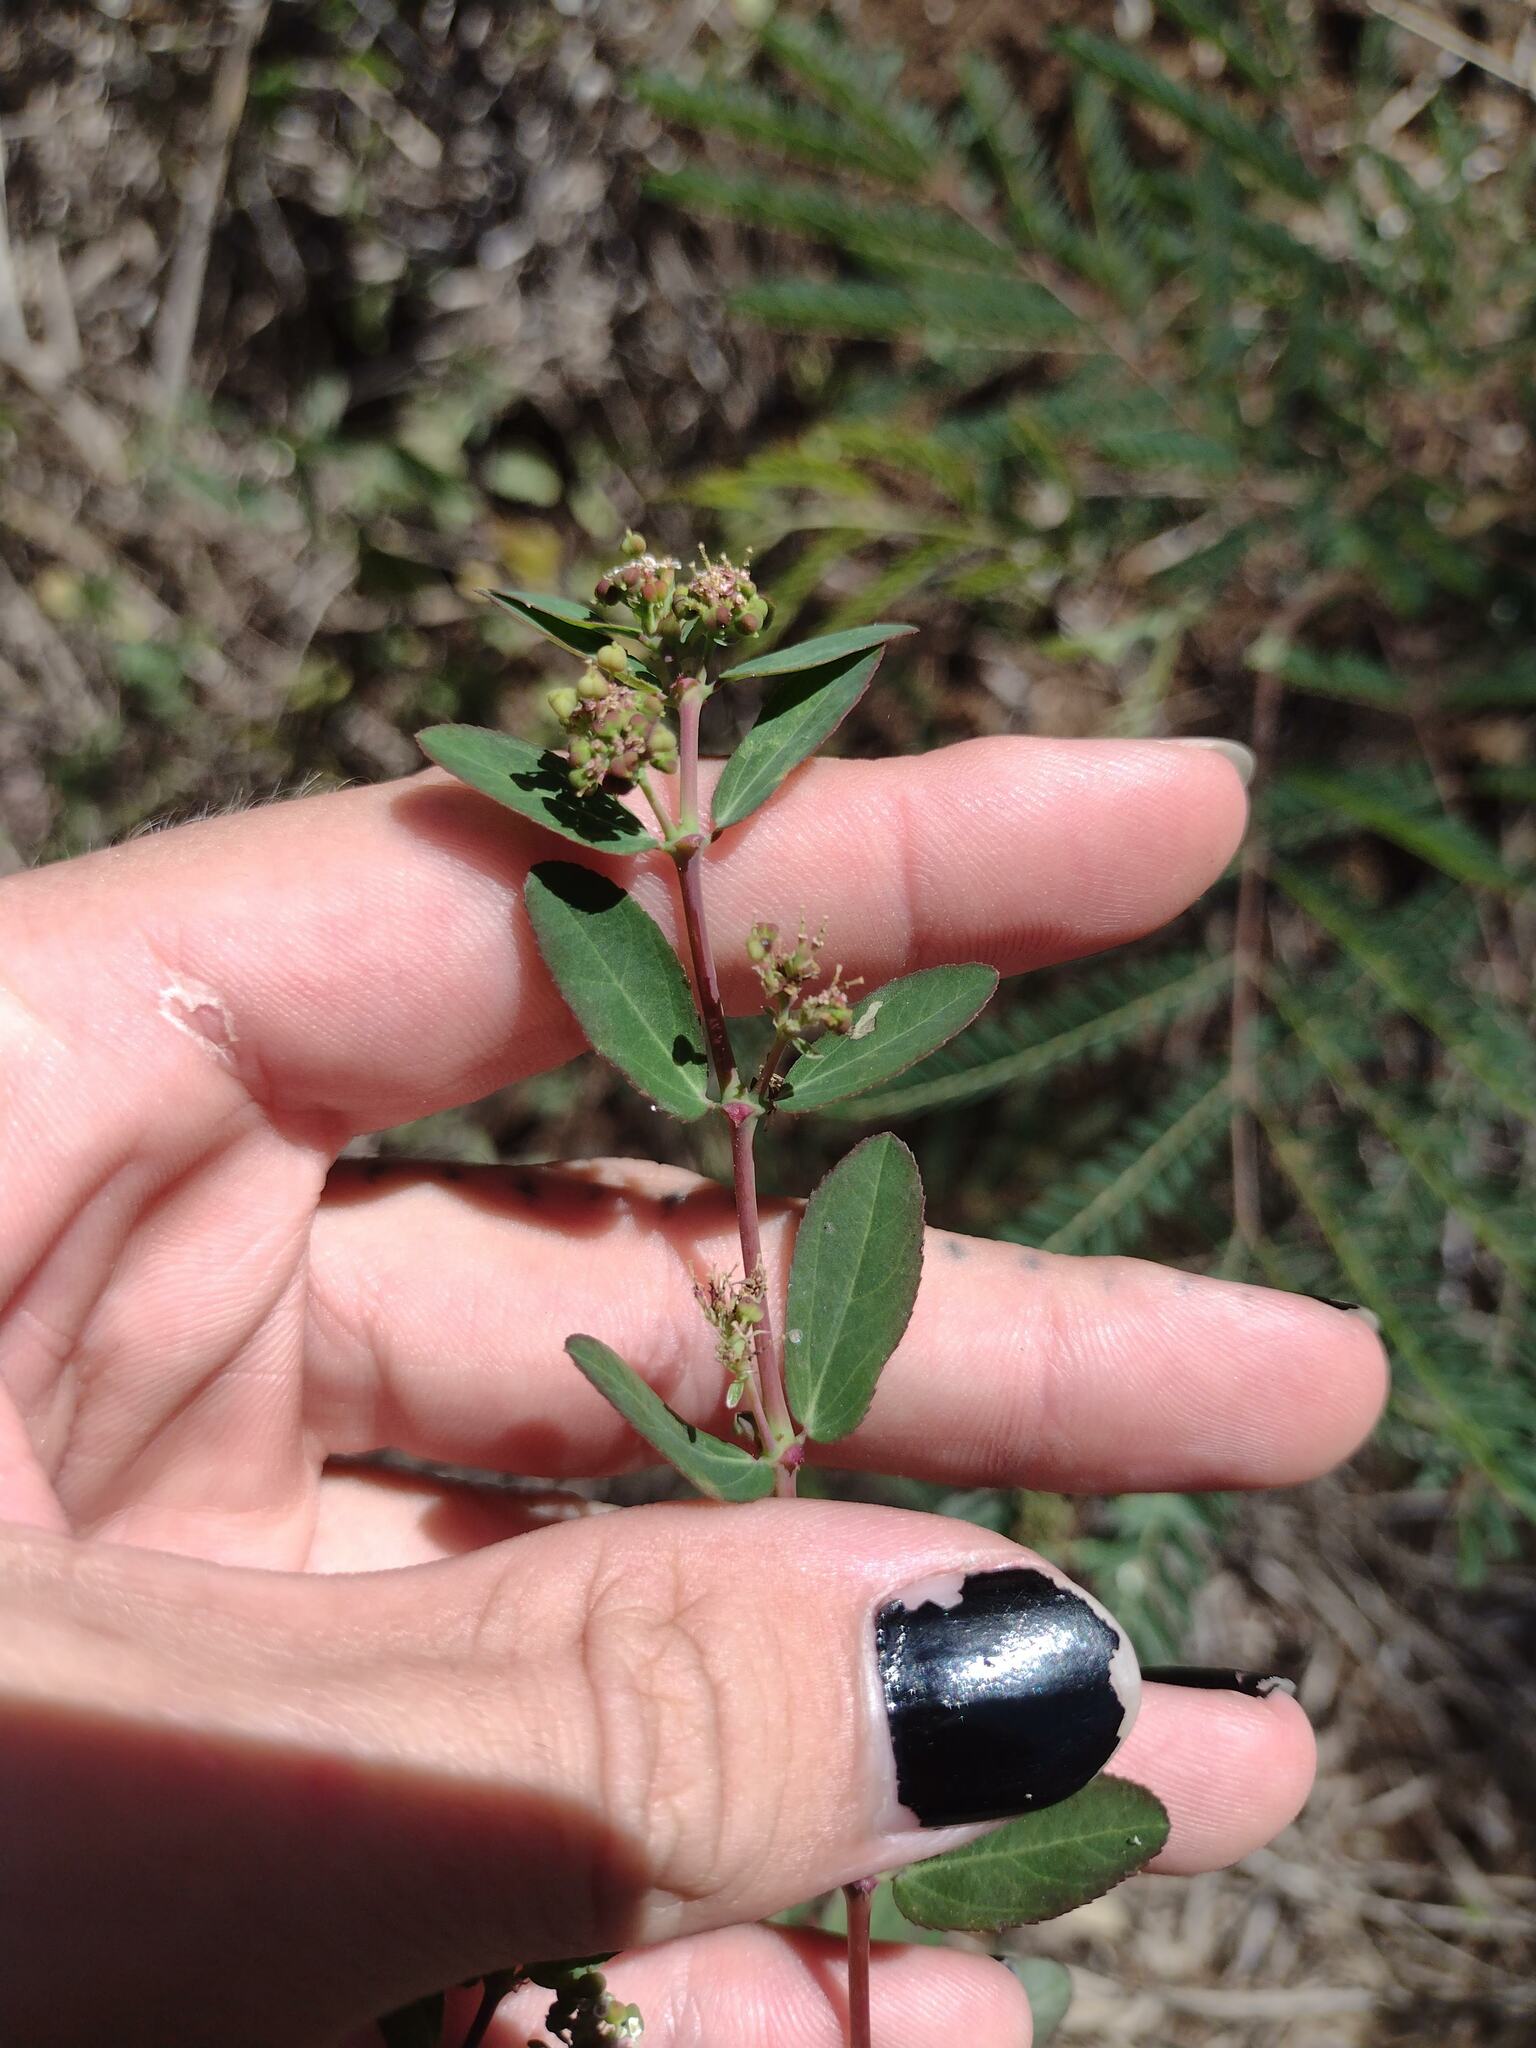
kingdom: Plantae
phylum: Tracheophyta
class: Magnoliopsida
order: Malpighiales
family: Euphorbiaceae
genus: Euphorbia
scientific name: Euphorbia hypericifolia
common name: Graceful sandmat
